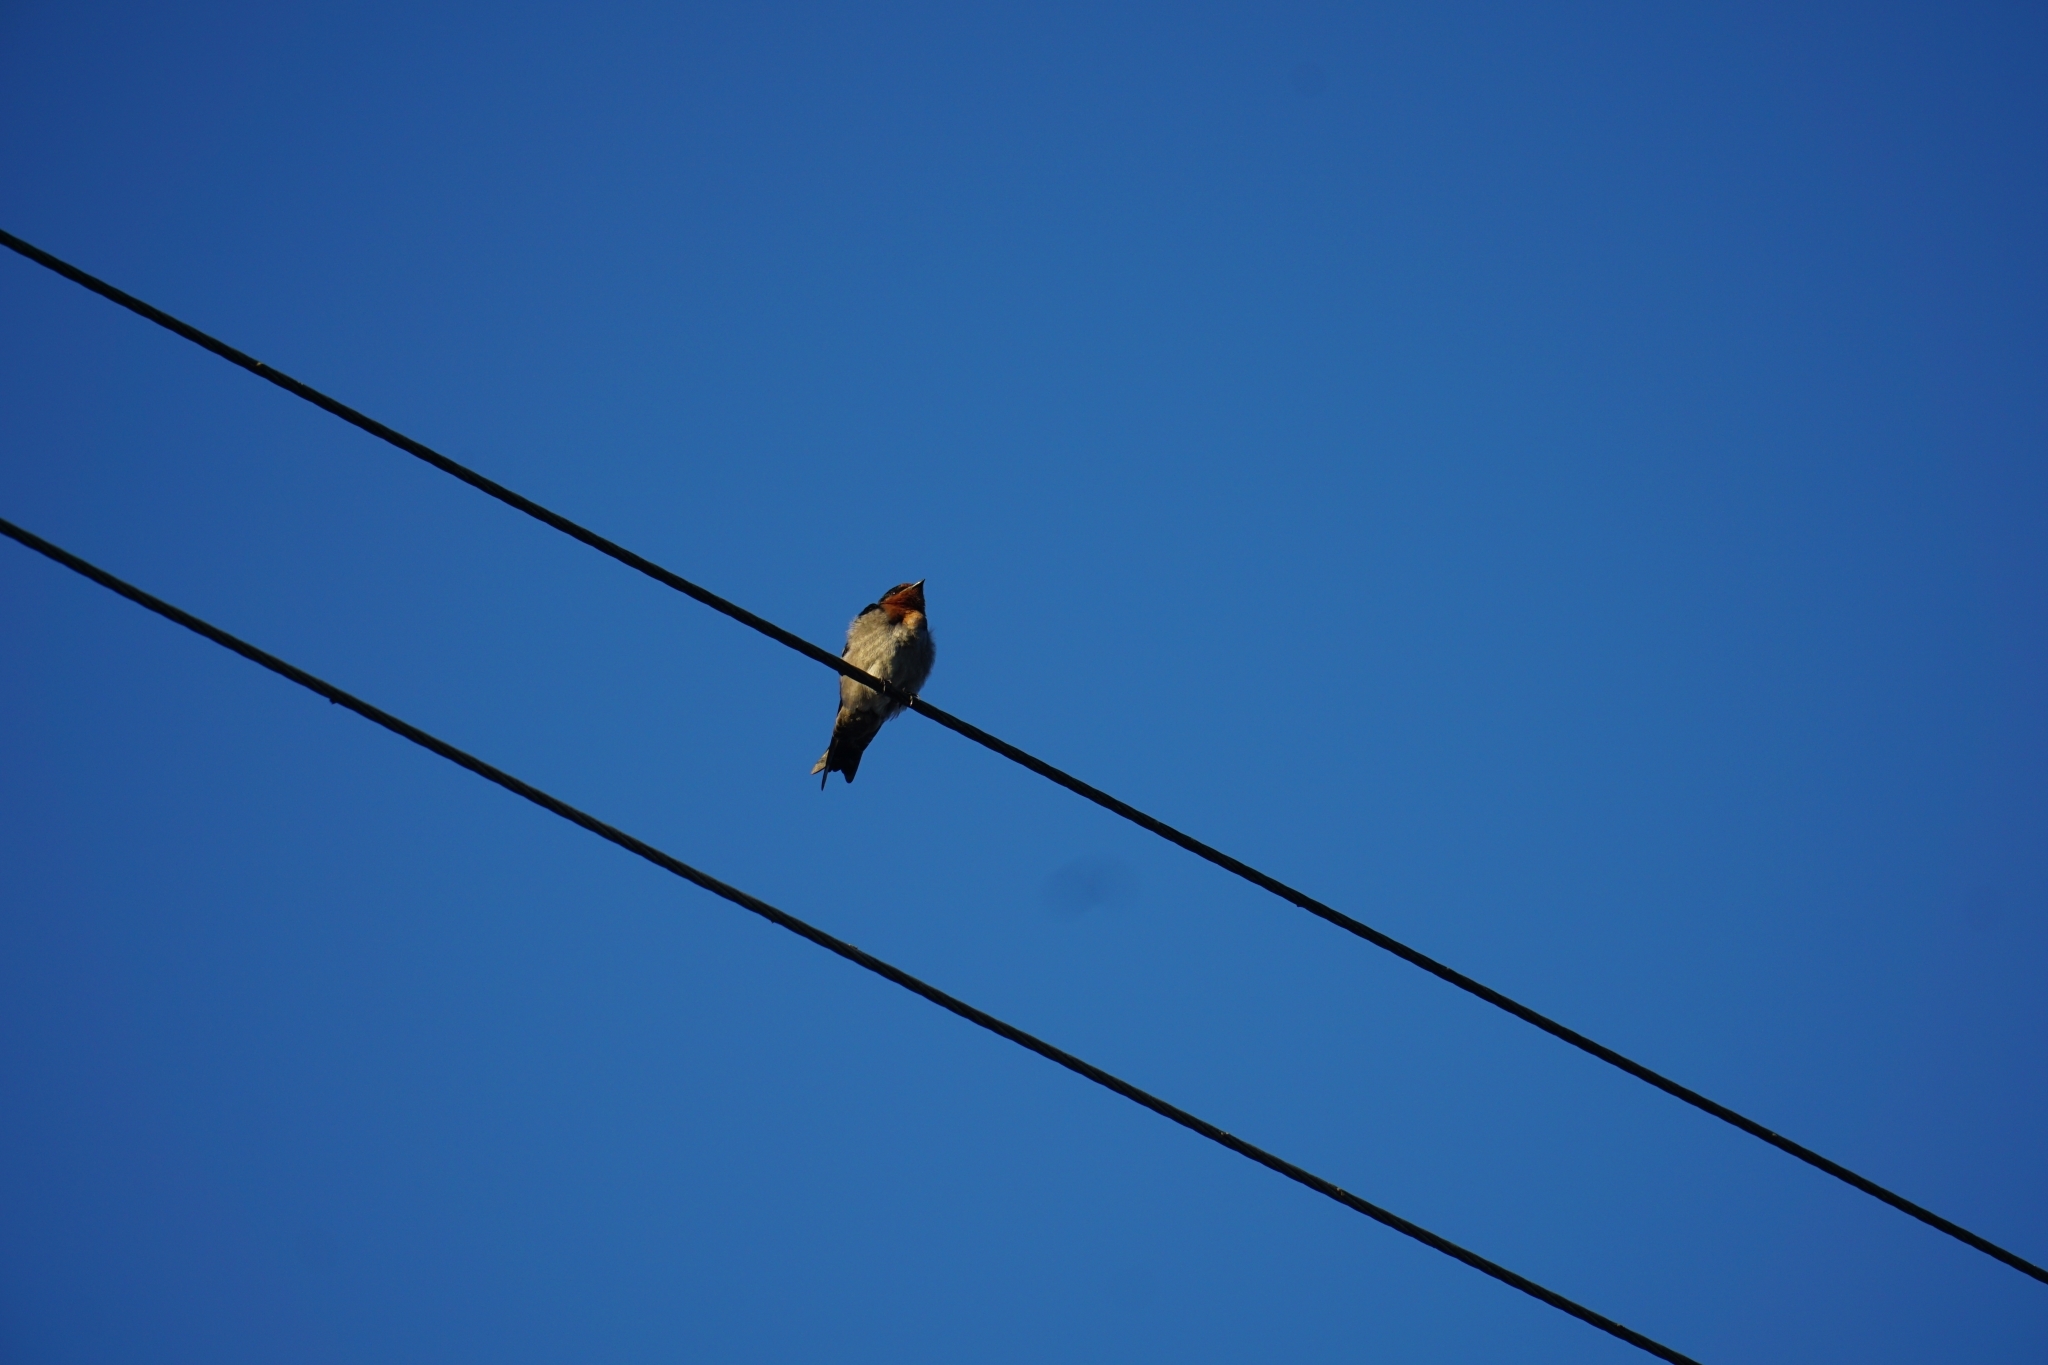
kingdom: Animalia
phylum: Chordata
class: Aves
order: Passeriformes
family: Hirundinidae
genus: Hirundo
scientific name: Hirundo tahitica
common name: Pacific swallow
